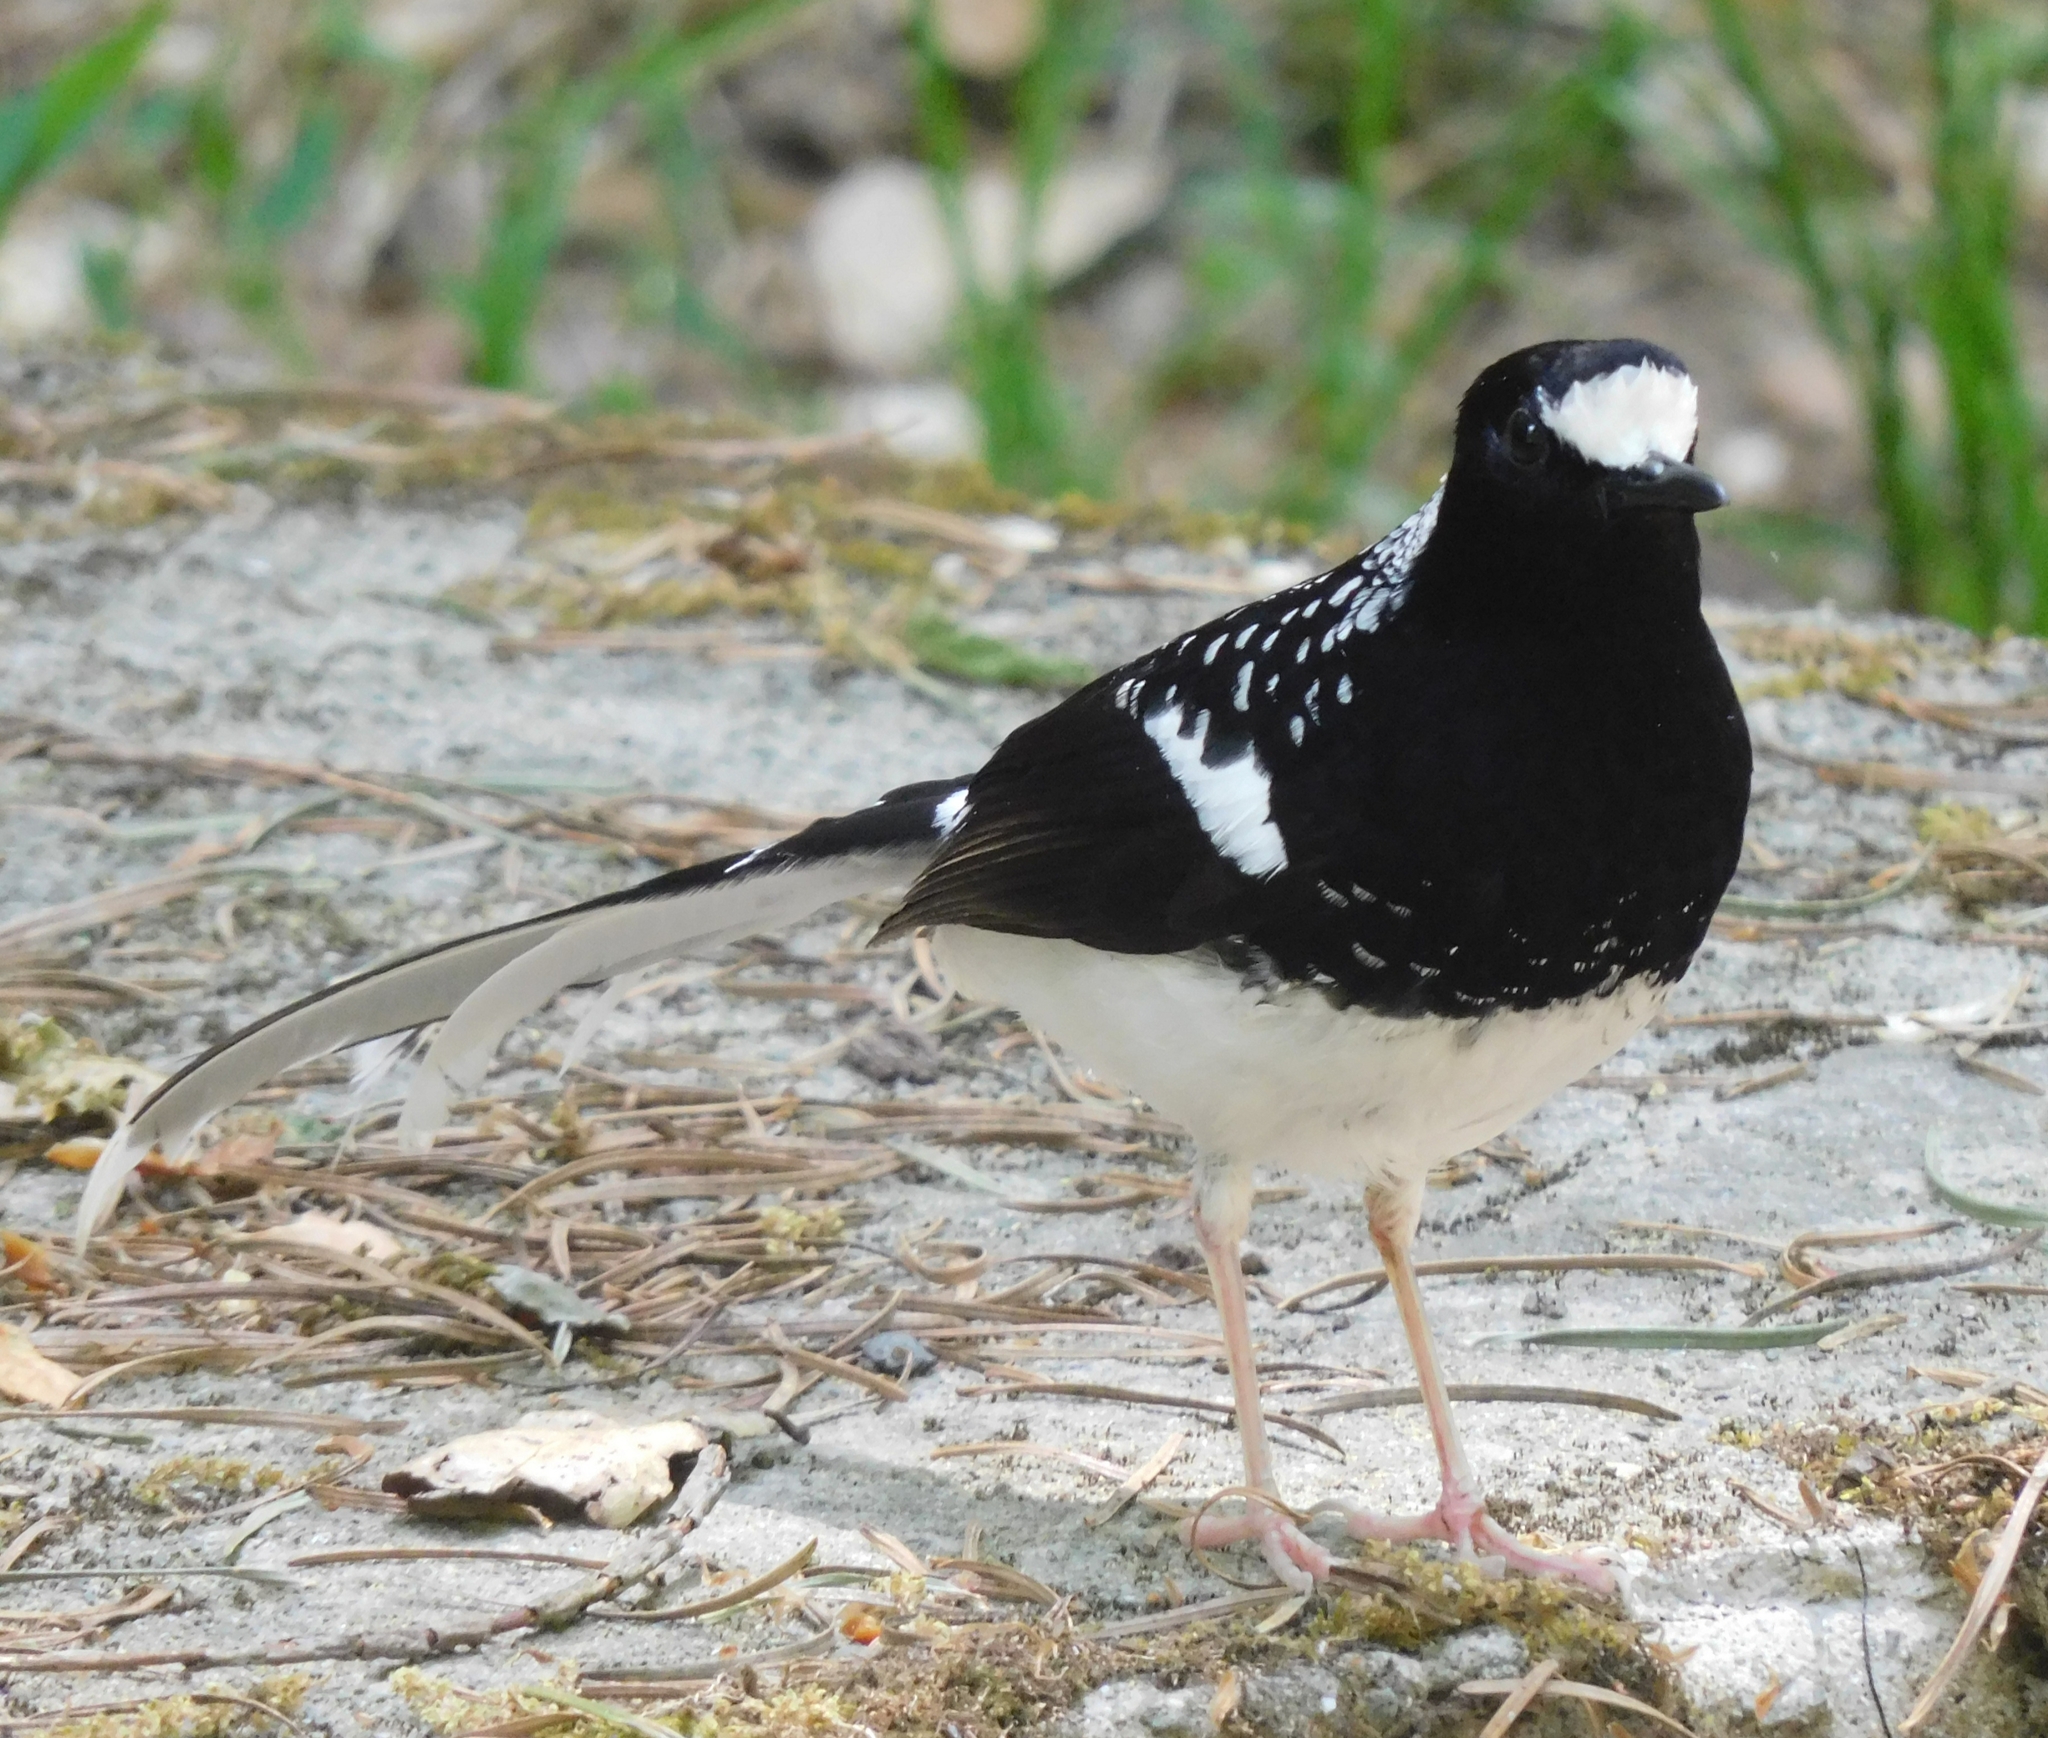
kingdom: Animalia
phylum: Chordata
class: Aves
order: Passeriformes
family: Muscicapidae
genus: Enicurus
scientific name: Enicurus maculatus
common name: Spotted forktail
